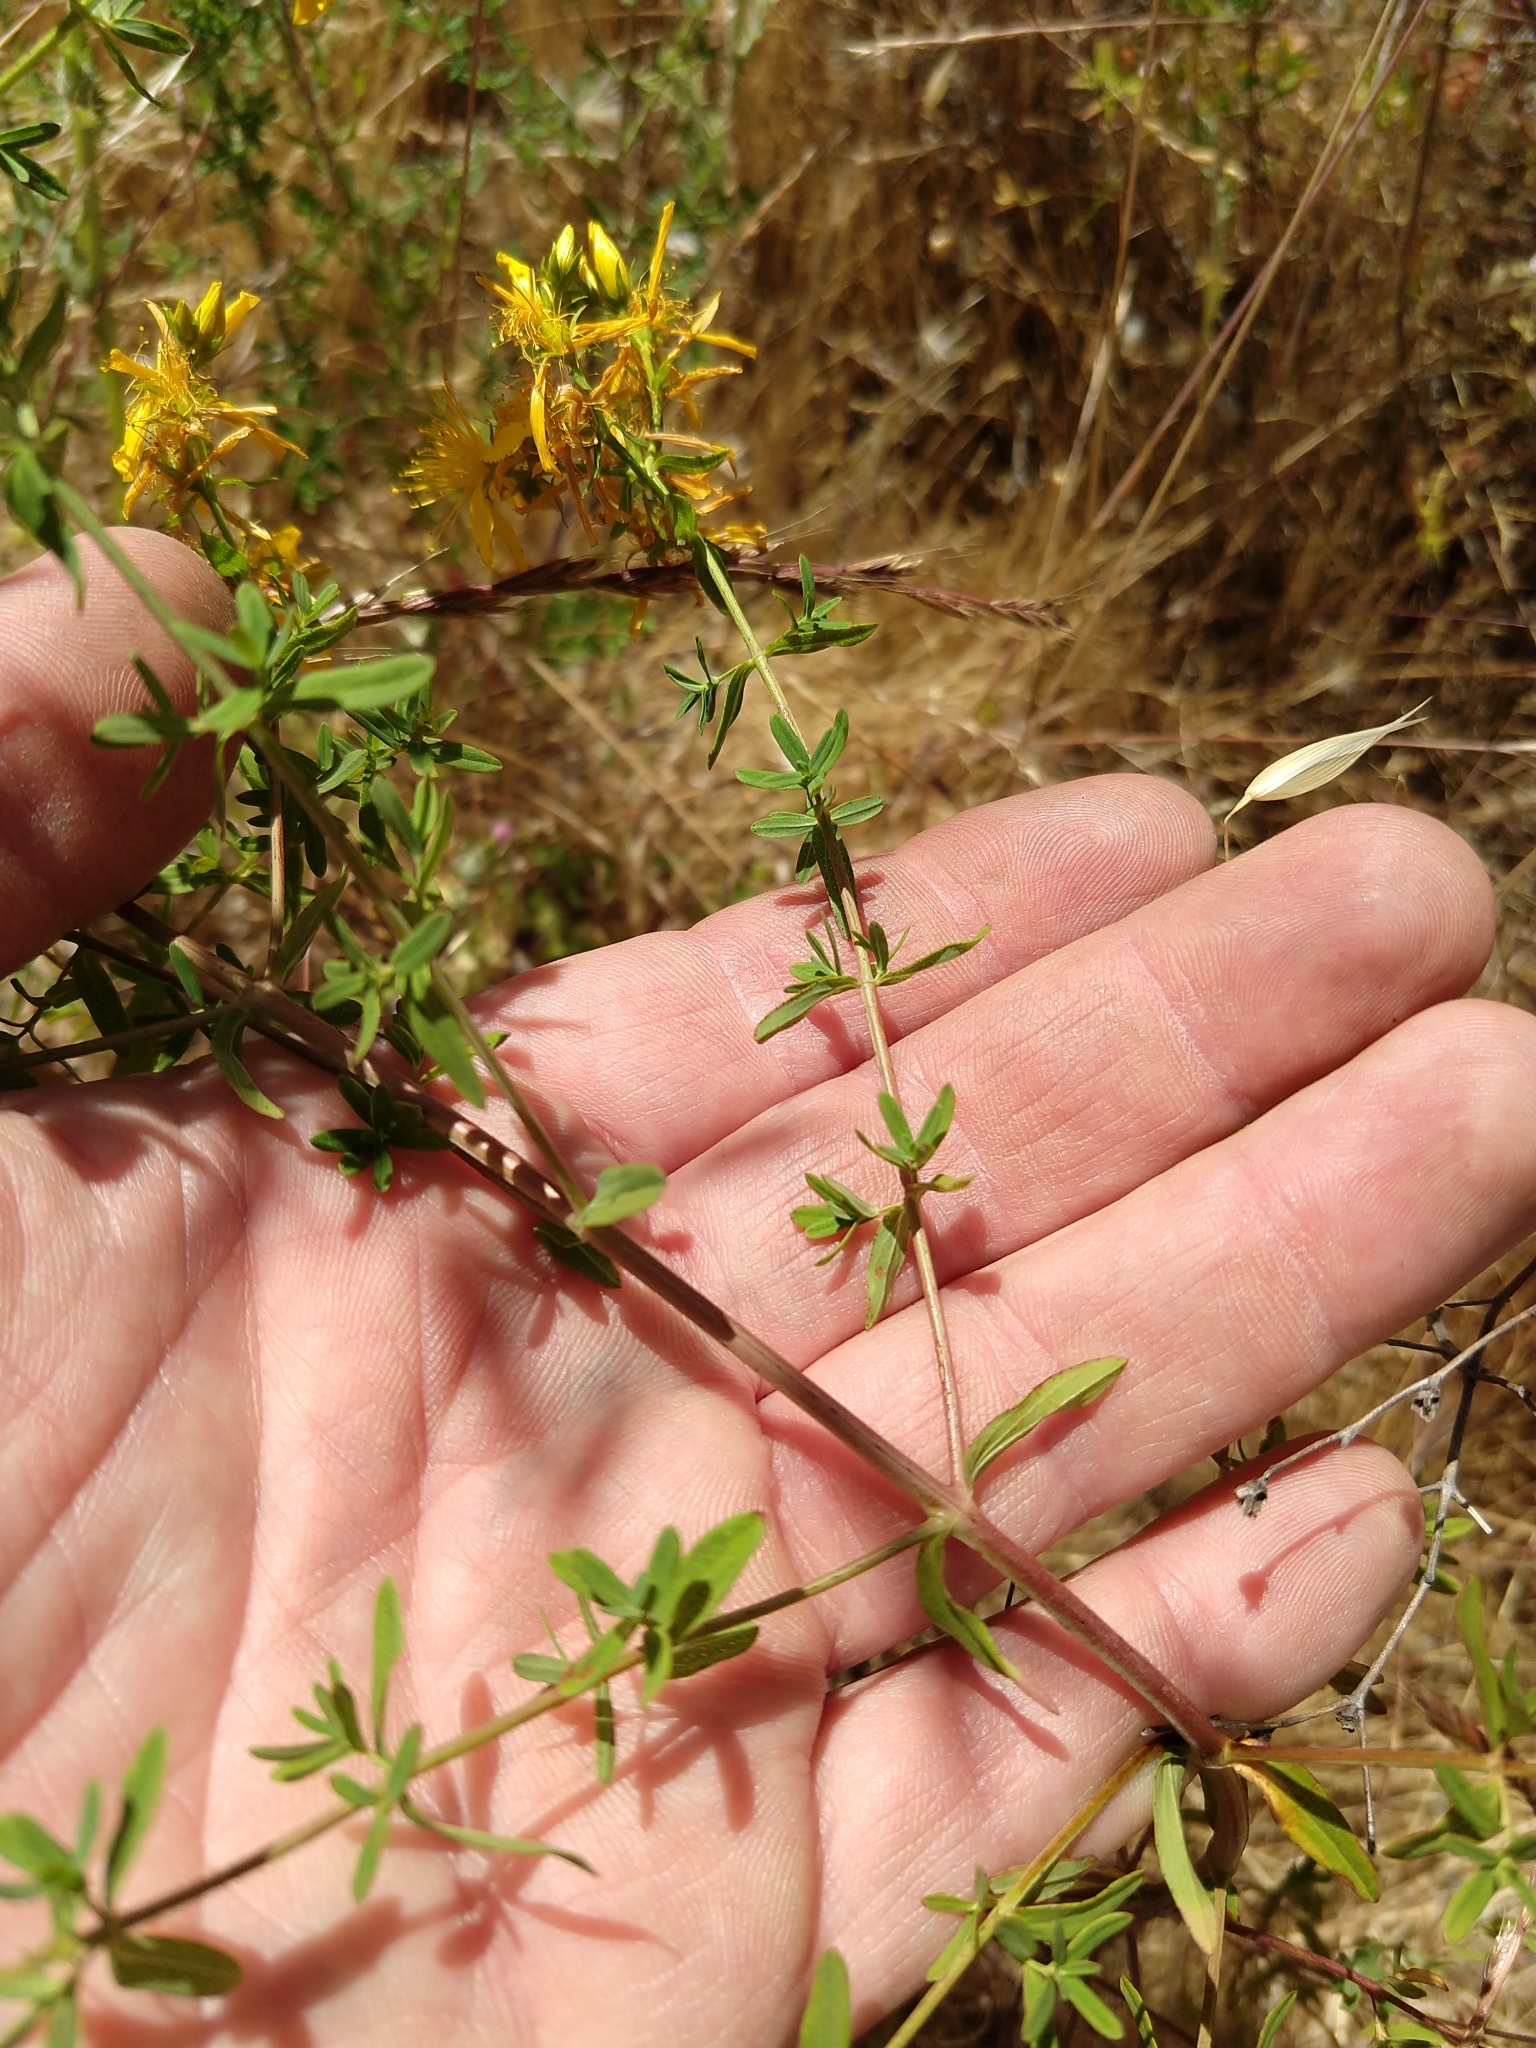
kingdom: Plantae
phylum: Tracheophyta
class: Magnoliopsida
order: Malpighiales
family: Hypericaceae
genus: Hypericum
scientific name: Hypericum perforatum
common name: Common st. johnswort
